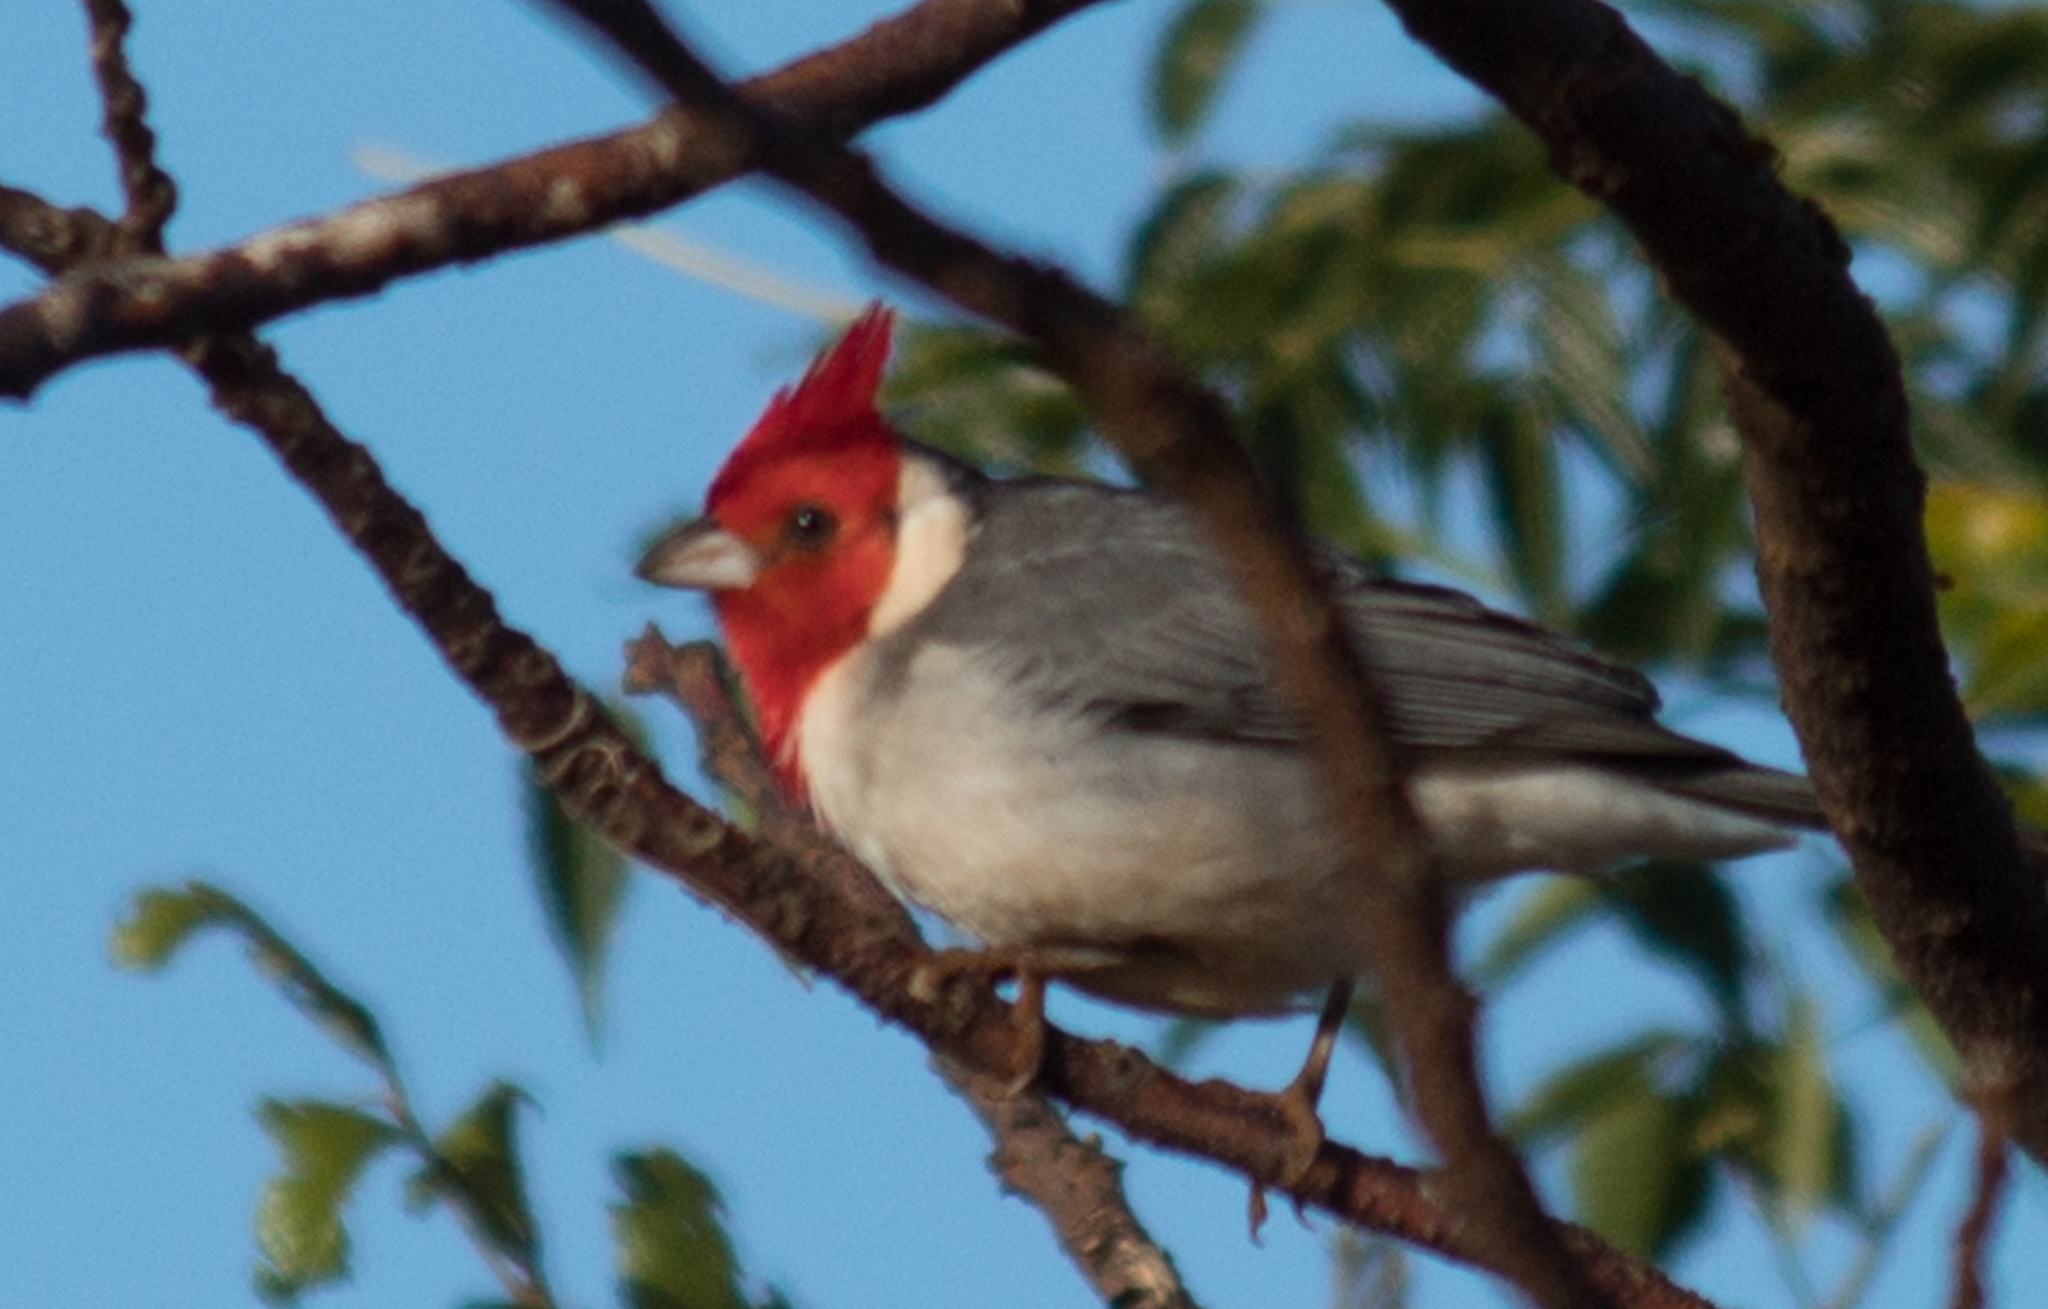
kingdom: Animalia
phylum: Chordata
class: Aves
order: Passeriformes
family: Thraupidae
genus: Paroaria
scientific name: Paroaria coronata
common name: Red-crested cardinal
